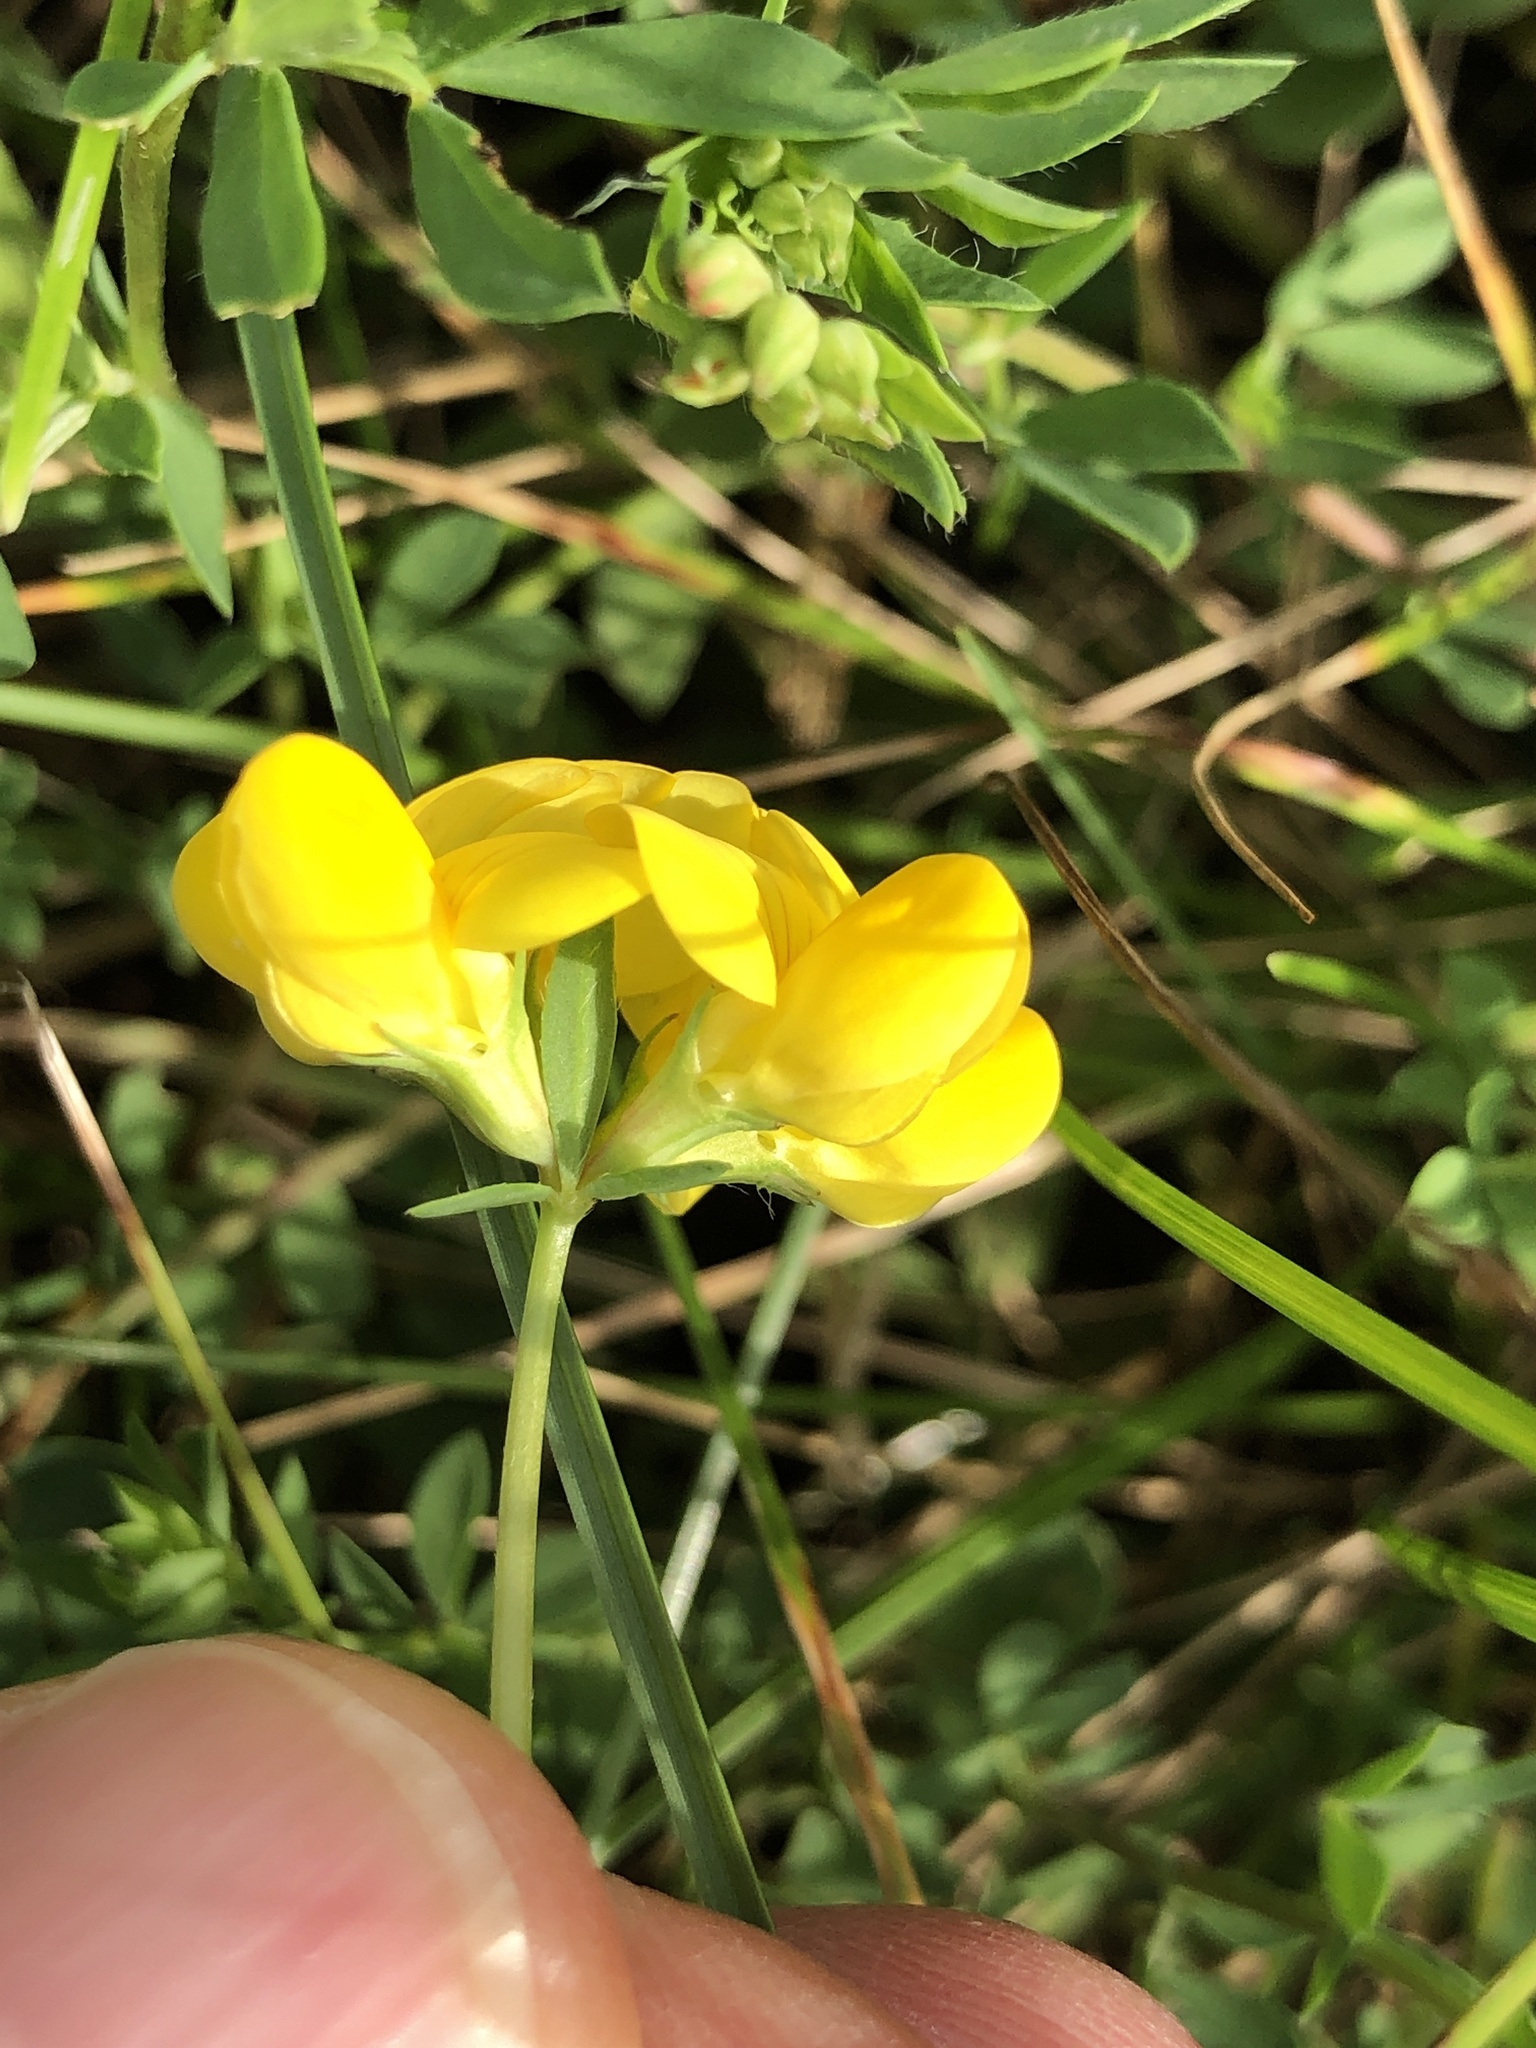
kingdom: Plantae
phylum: Tracheophyta
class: Magnoliopsida
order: Fabales
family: Fabaceae
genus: Lotus
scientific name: Lotus corniculatus
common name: Common bird's-foot-trefoil
